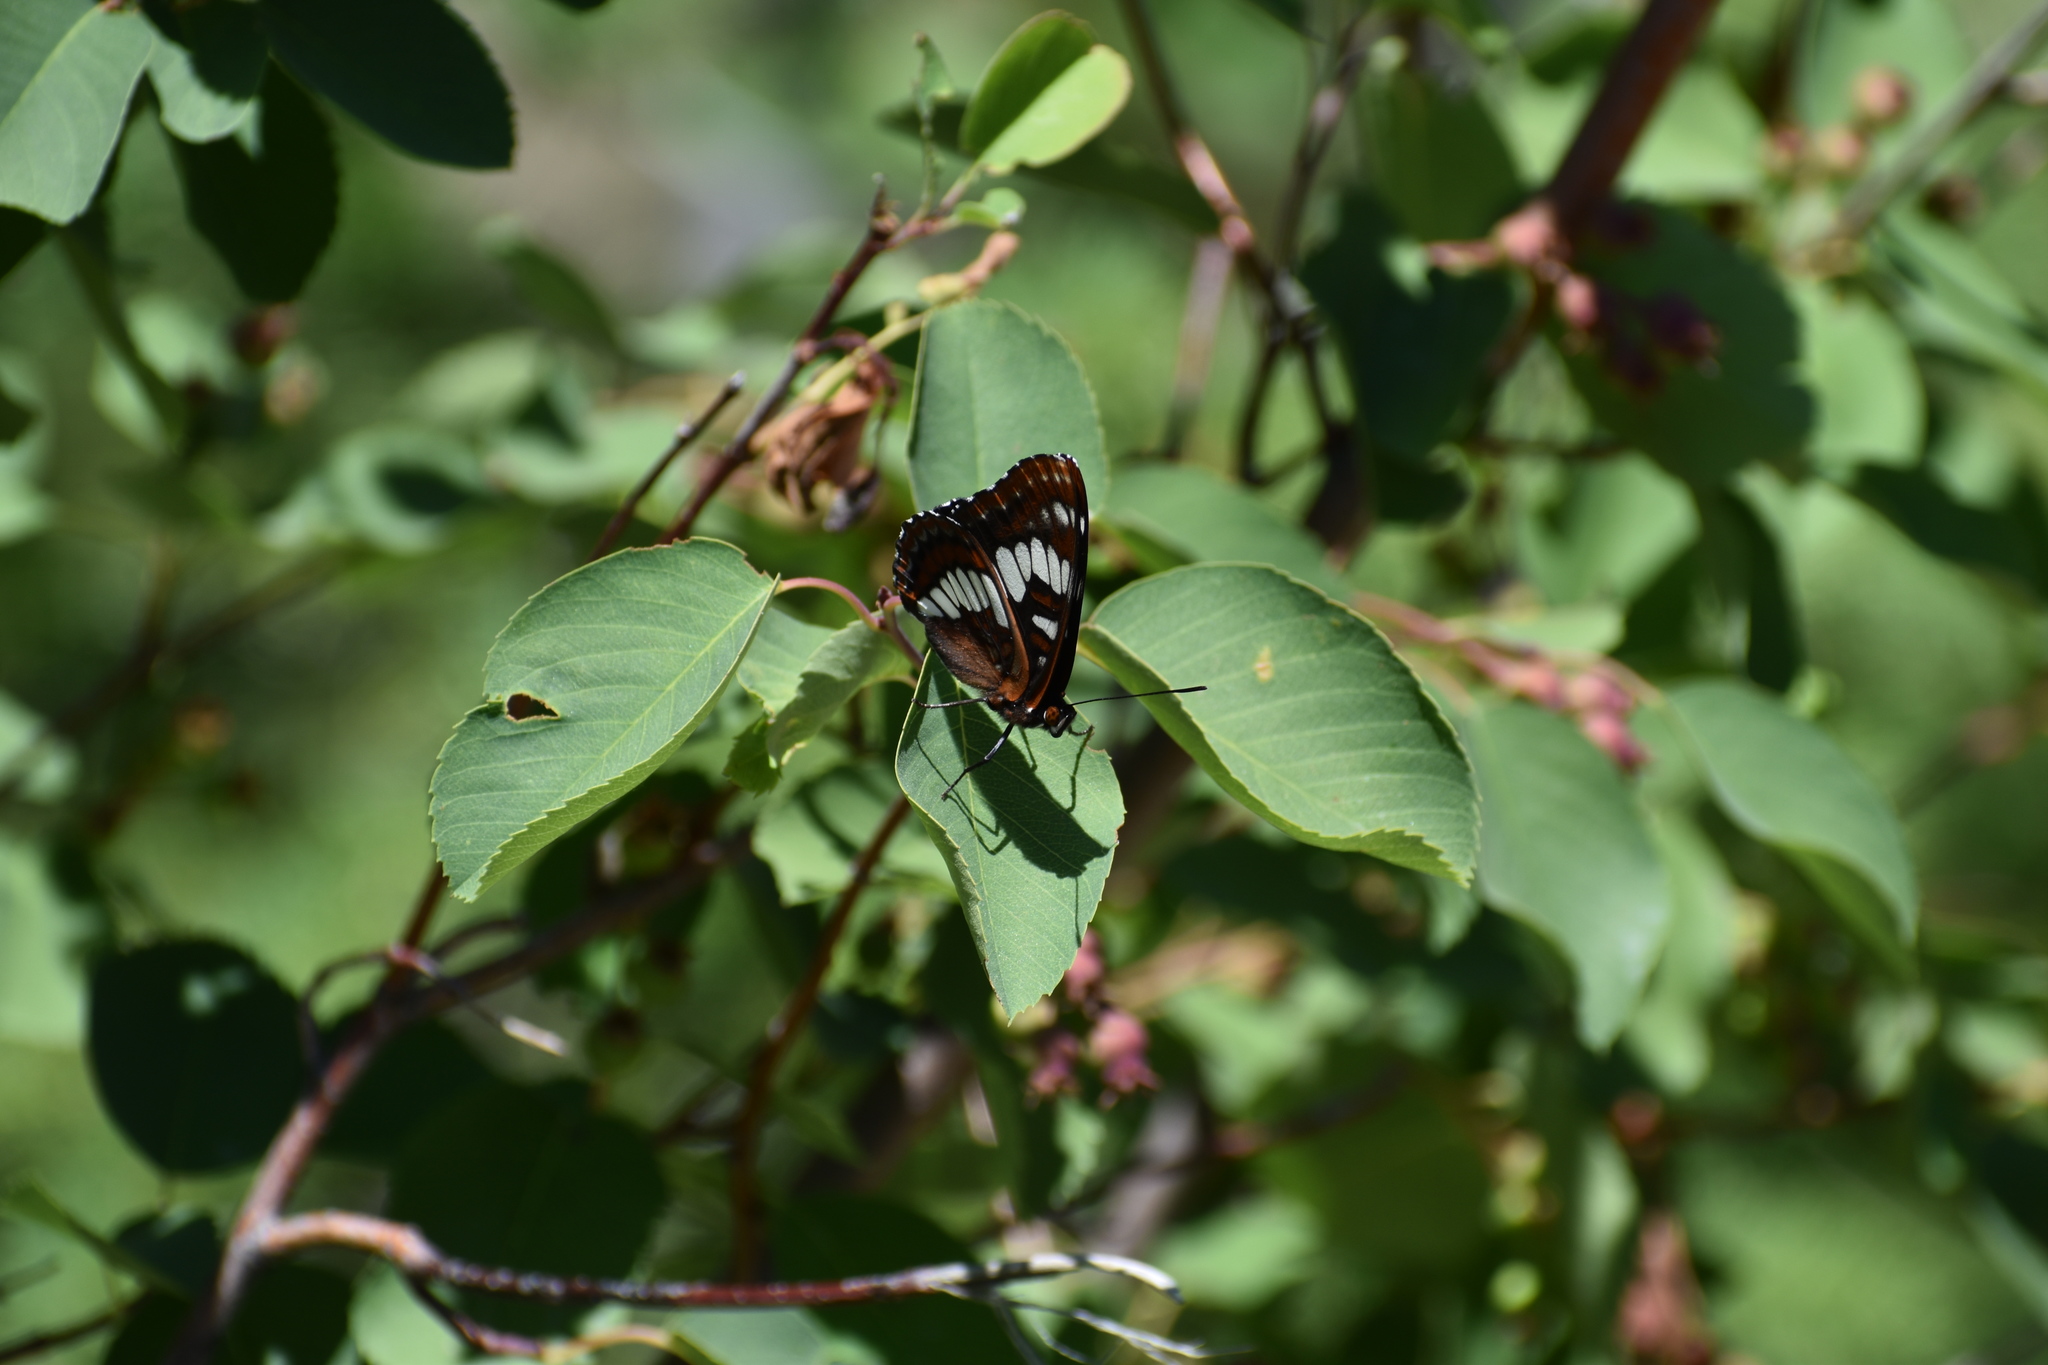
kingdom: Animalia
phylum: Arthropoda
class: Insecta
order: Lepidoptera
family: Nymphalidae
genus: Limenitis
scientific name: Limenitis lorquini
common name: Lorquin's admiral
